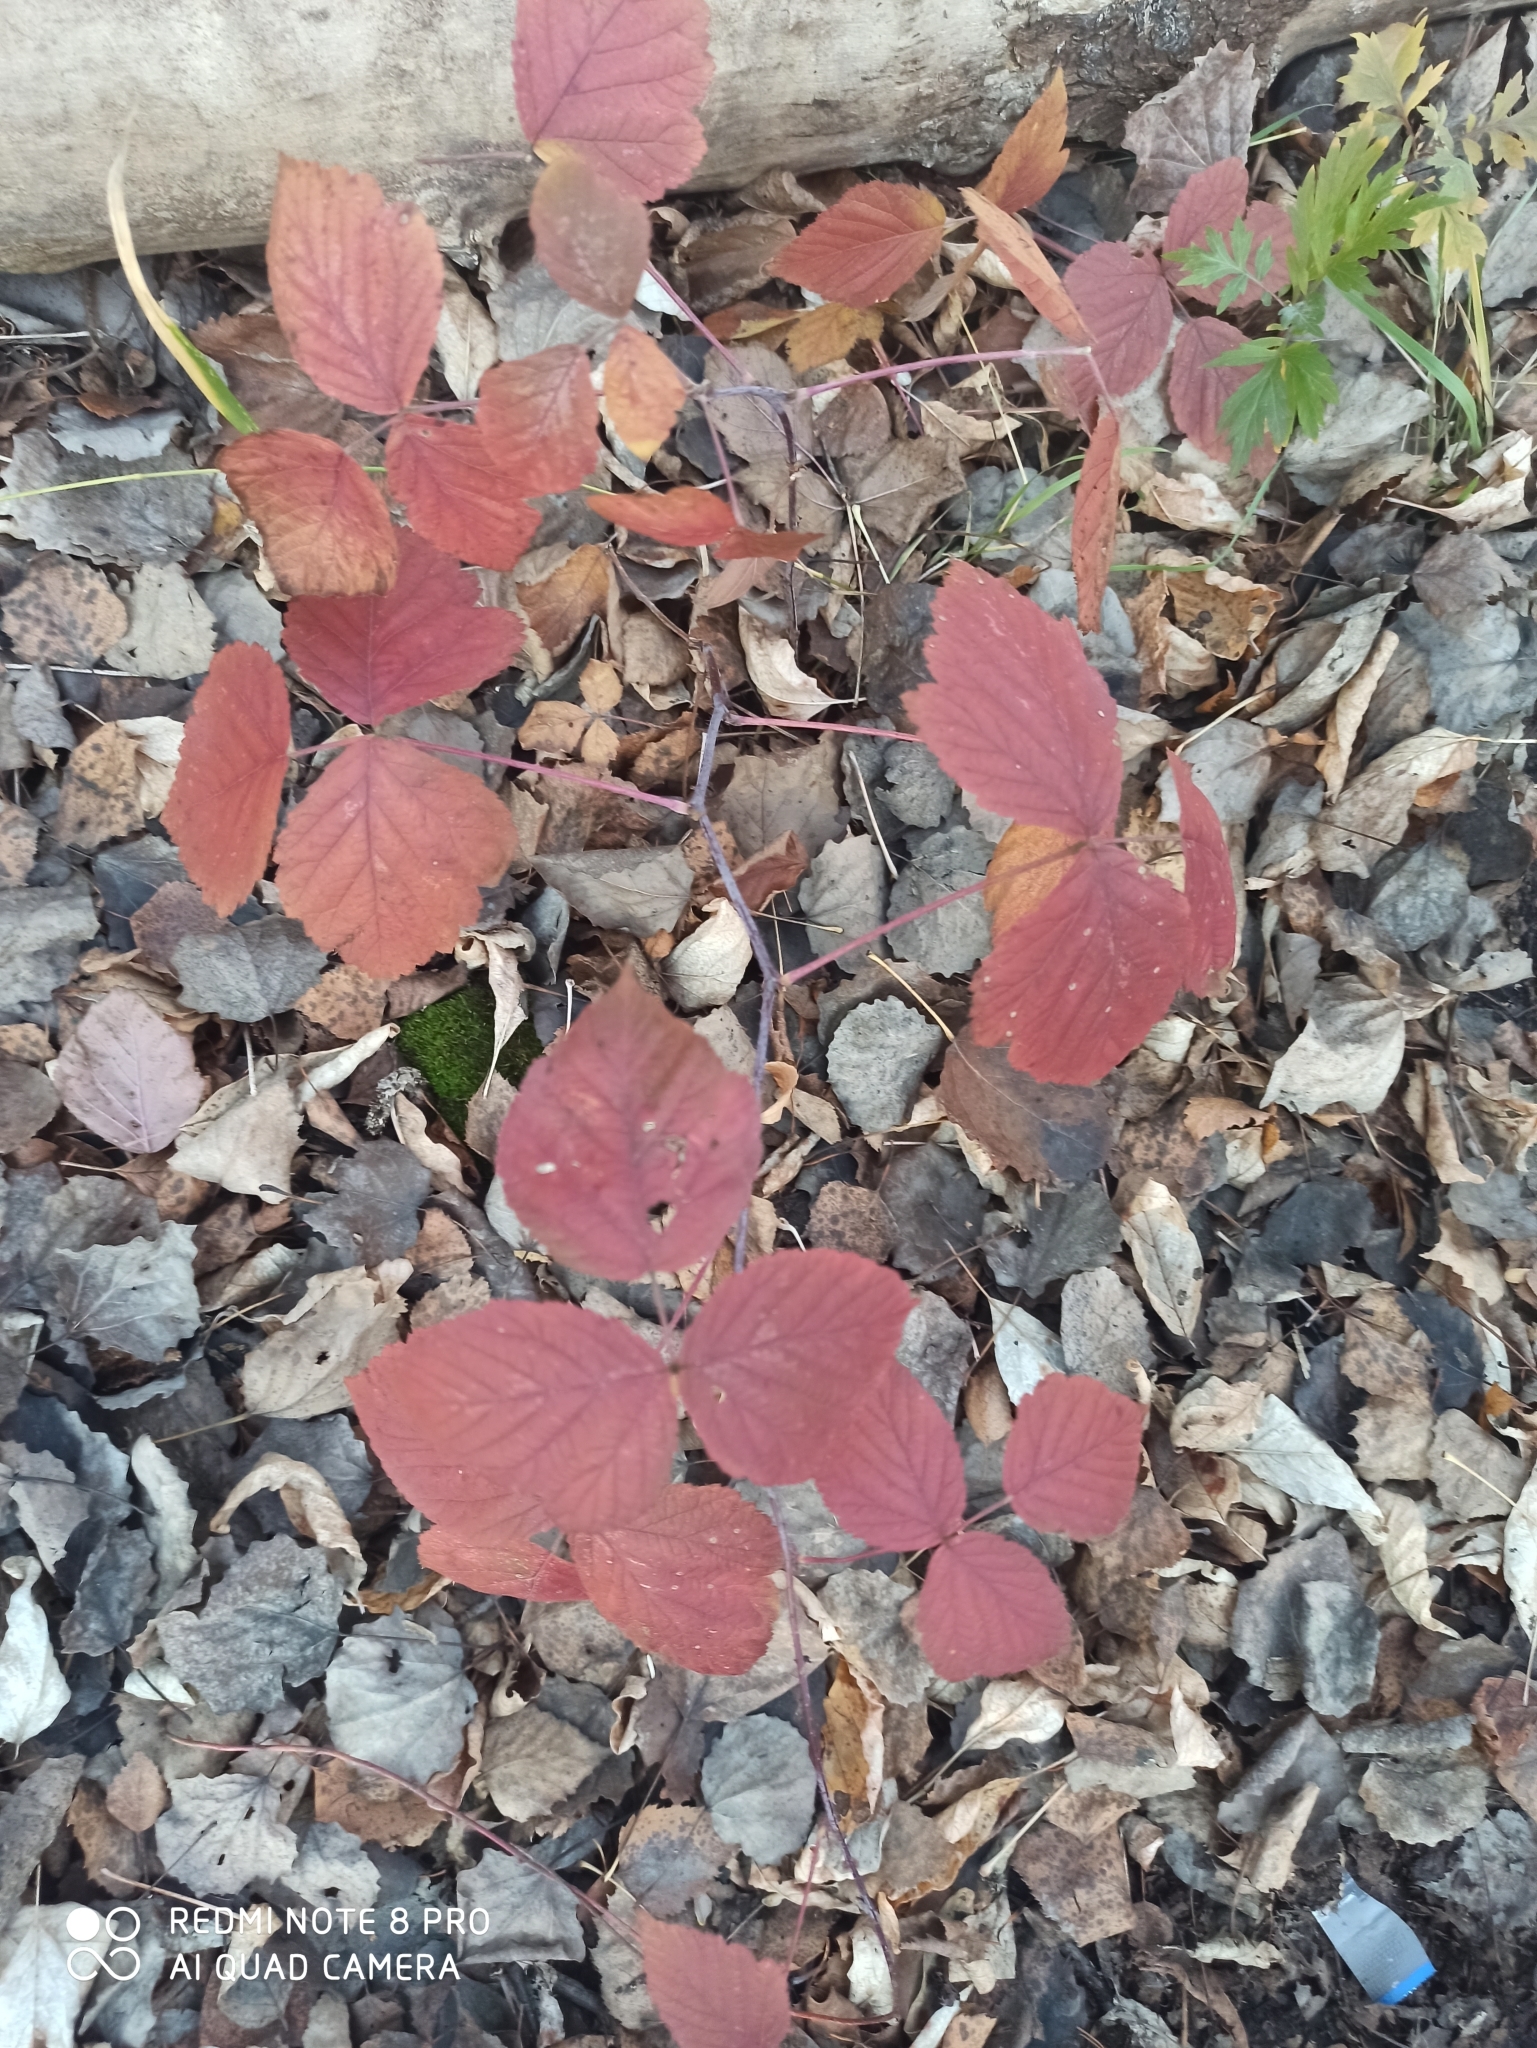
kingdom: Plantae
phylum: Tracheophyta
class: Magnoliopsida
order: Rosales
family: Rosaceae
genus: Rubus
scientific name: Rubus caesius
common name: Dewberry
